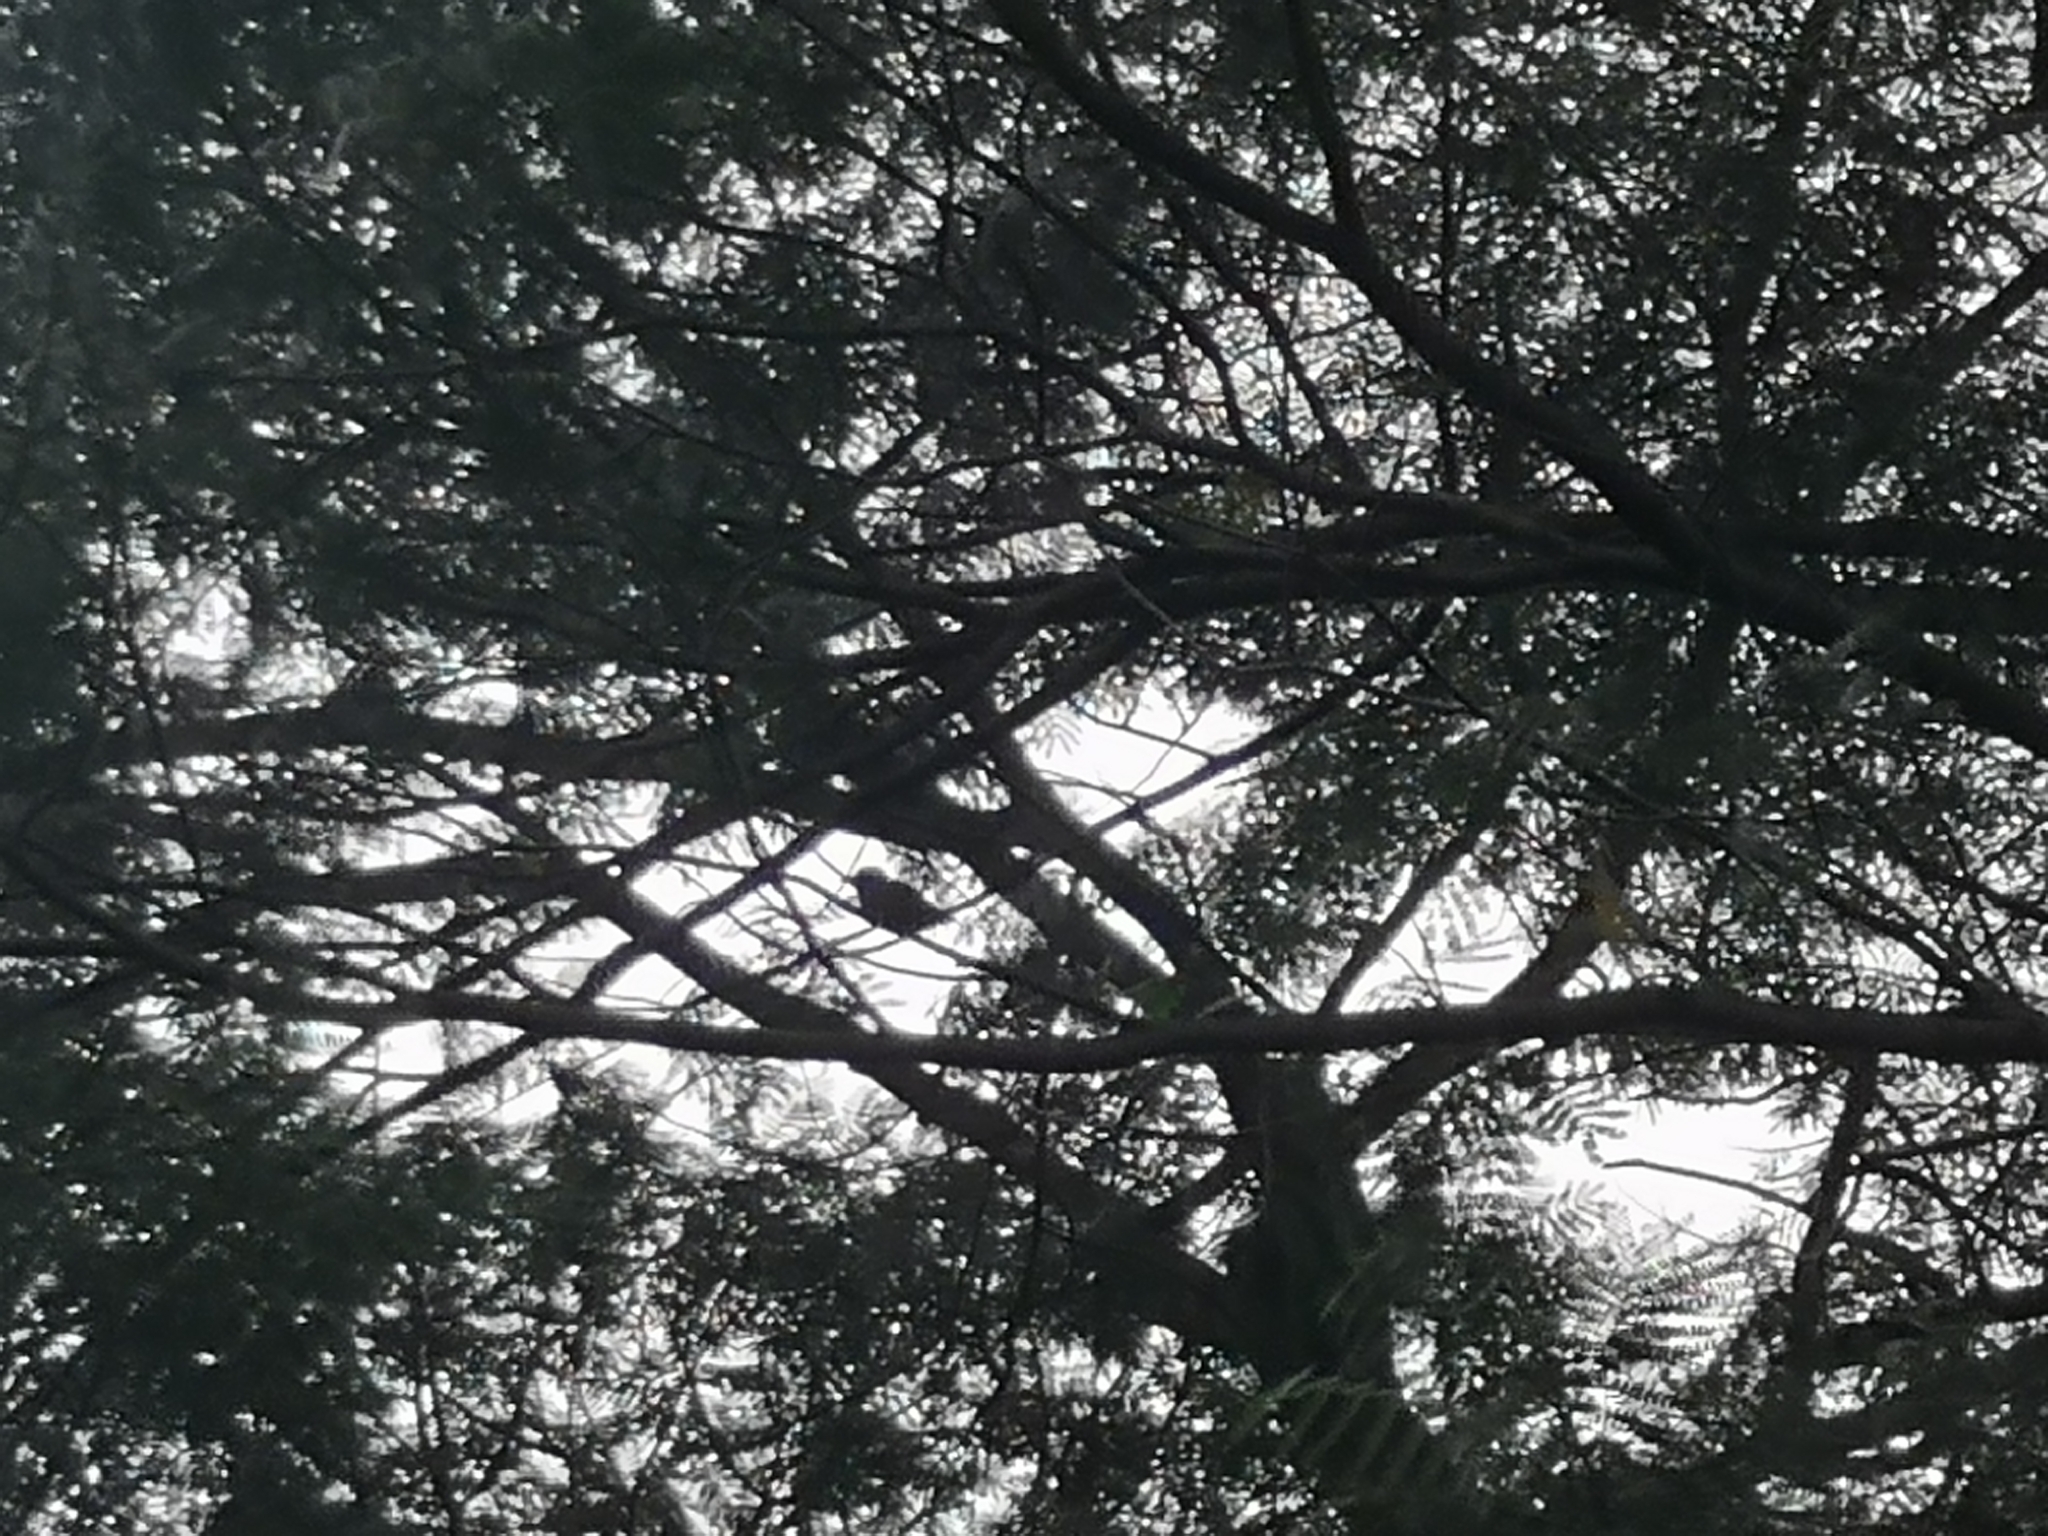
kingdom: Animalia
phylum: Chordata
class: Aves
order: Coraciiformes
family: Coraciidae
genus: Eurystomus
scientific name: Eurystomus orientalis
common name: Oriental dollarbird
